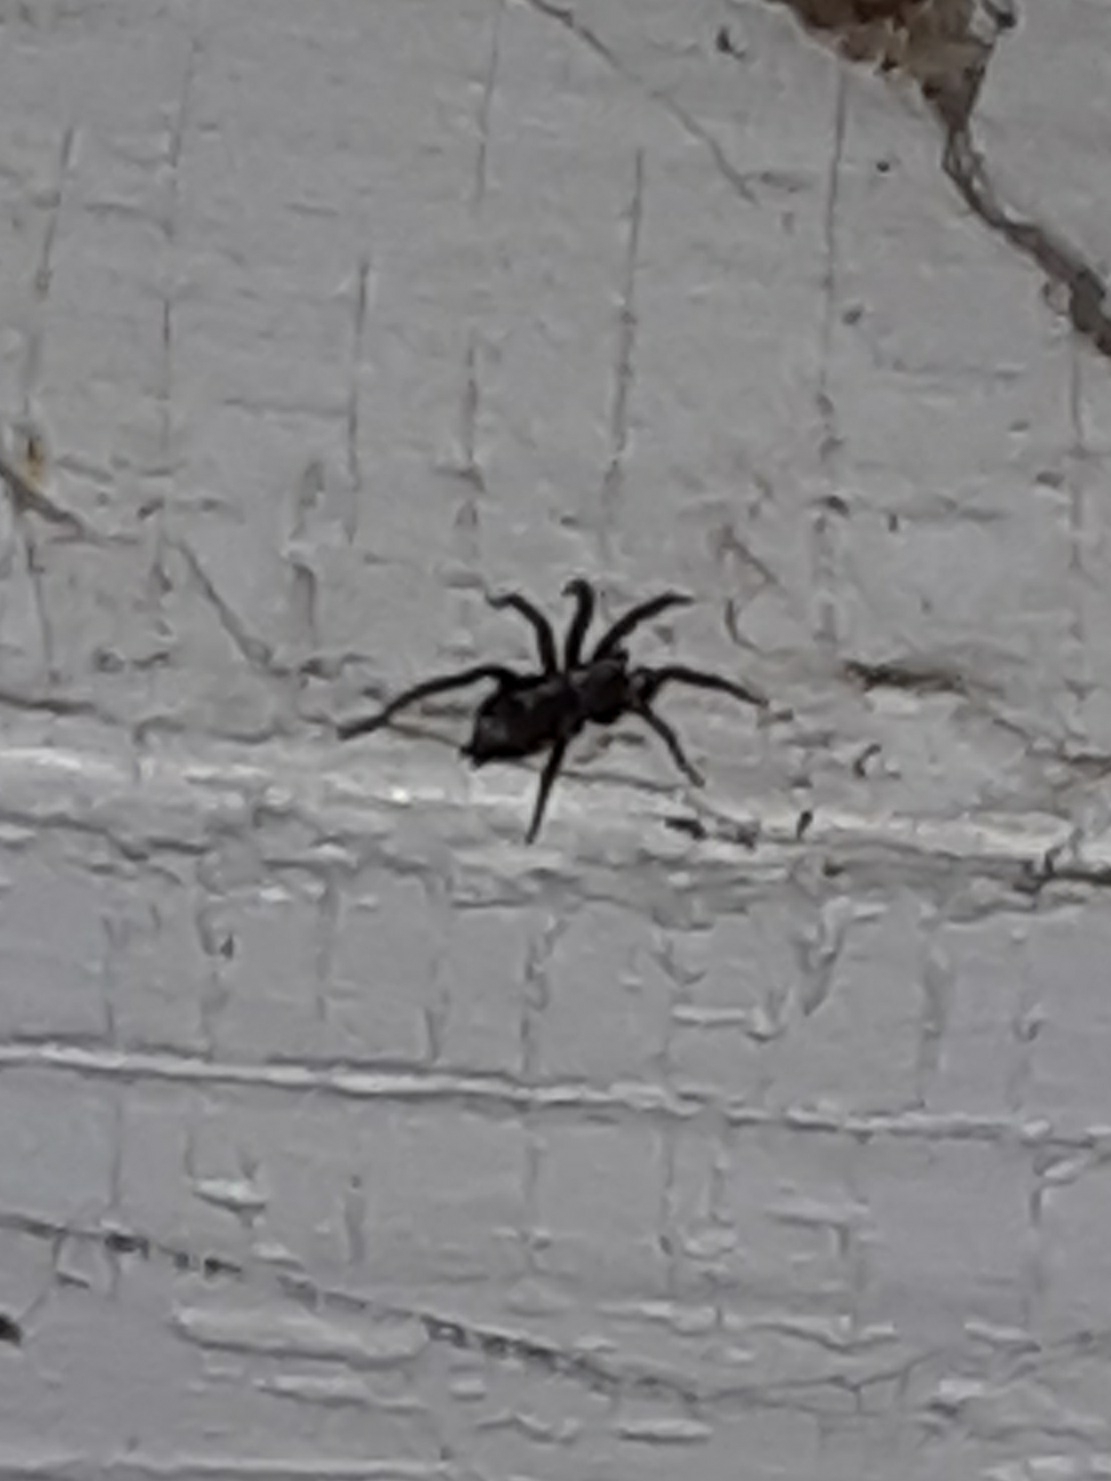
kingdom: Animalia
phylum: Arthropoda
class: Arachnida
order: Araneae
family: Gnaphosidae
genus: Herpyllus
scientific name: Herpyllus ecclesiasticus
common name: Eastern parson spider
